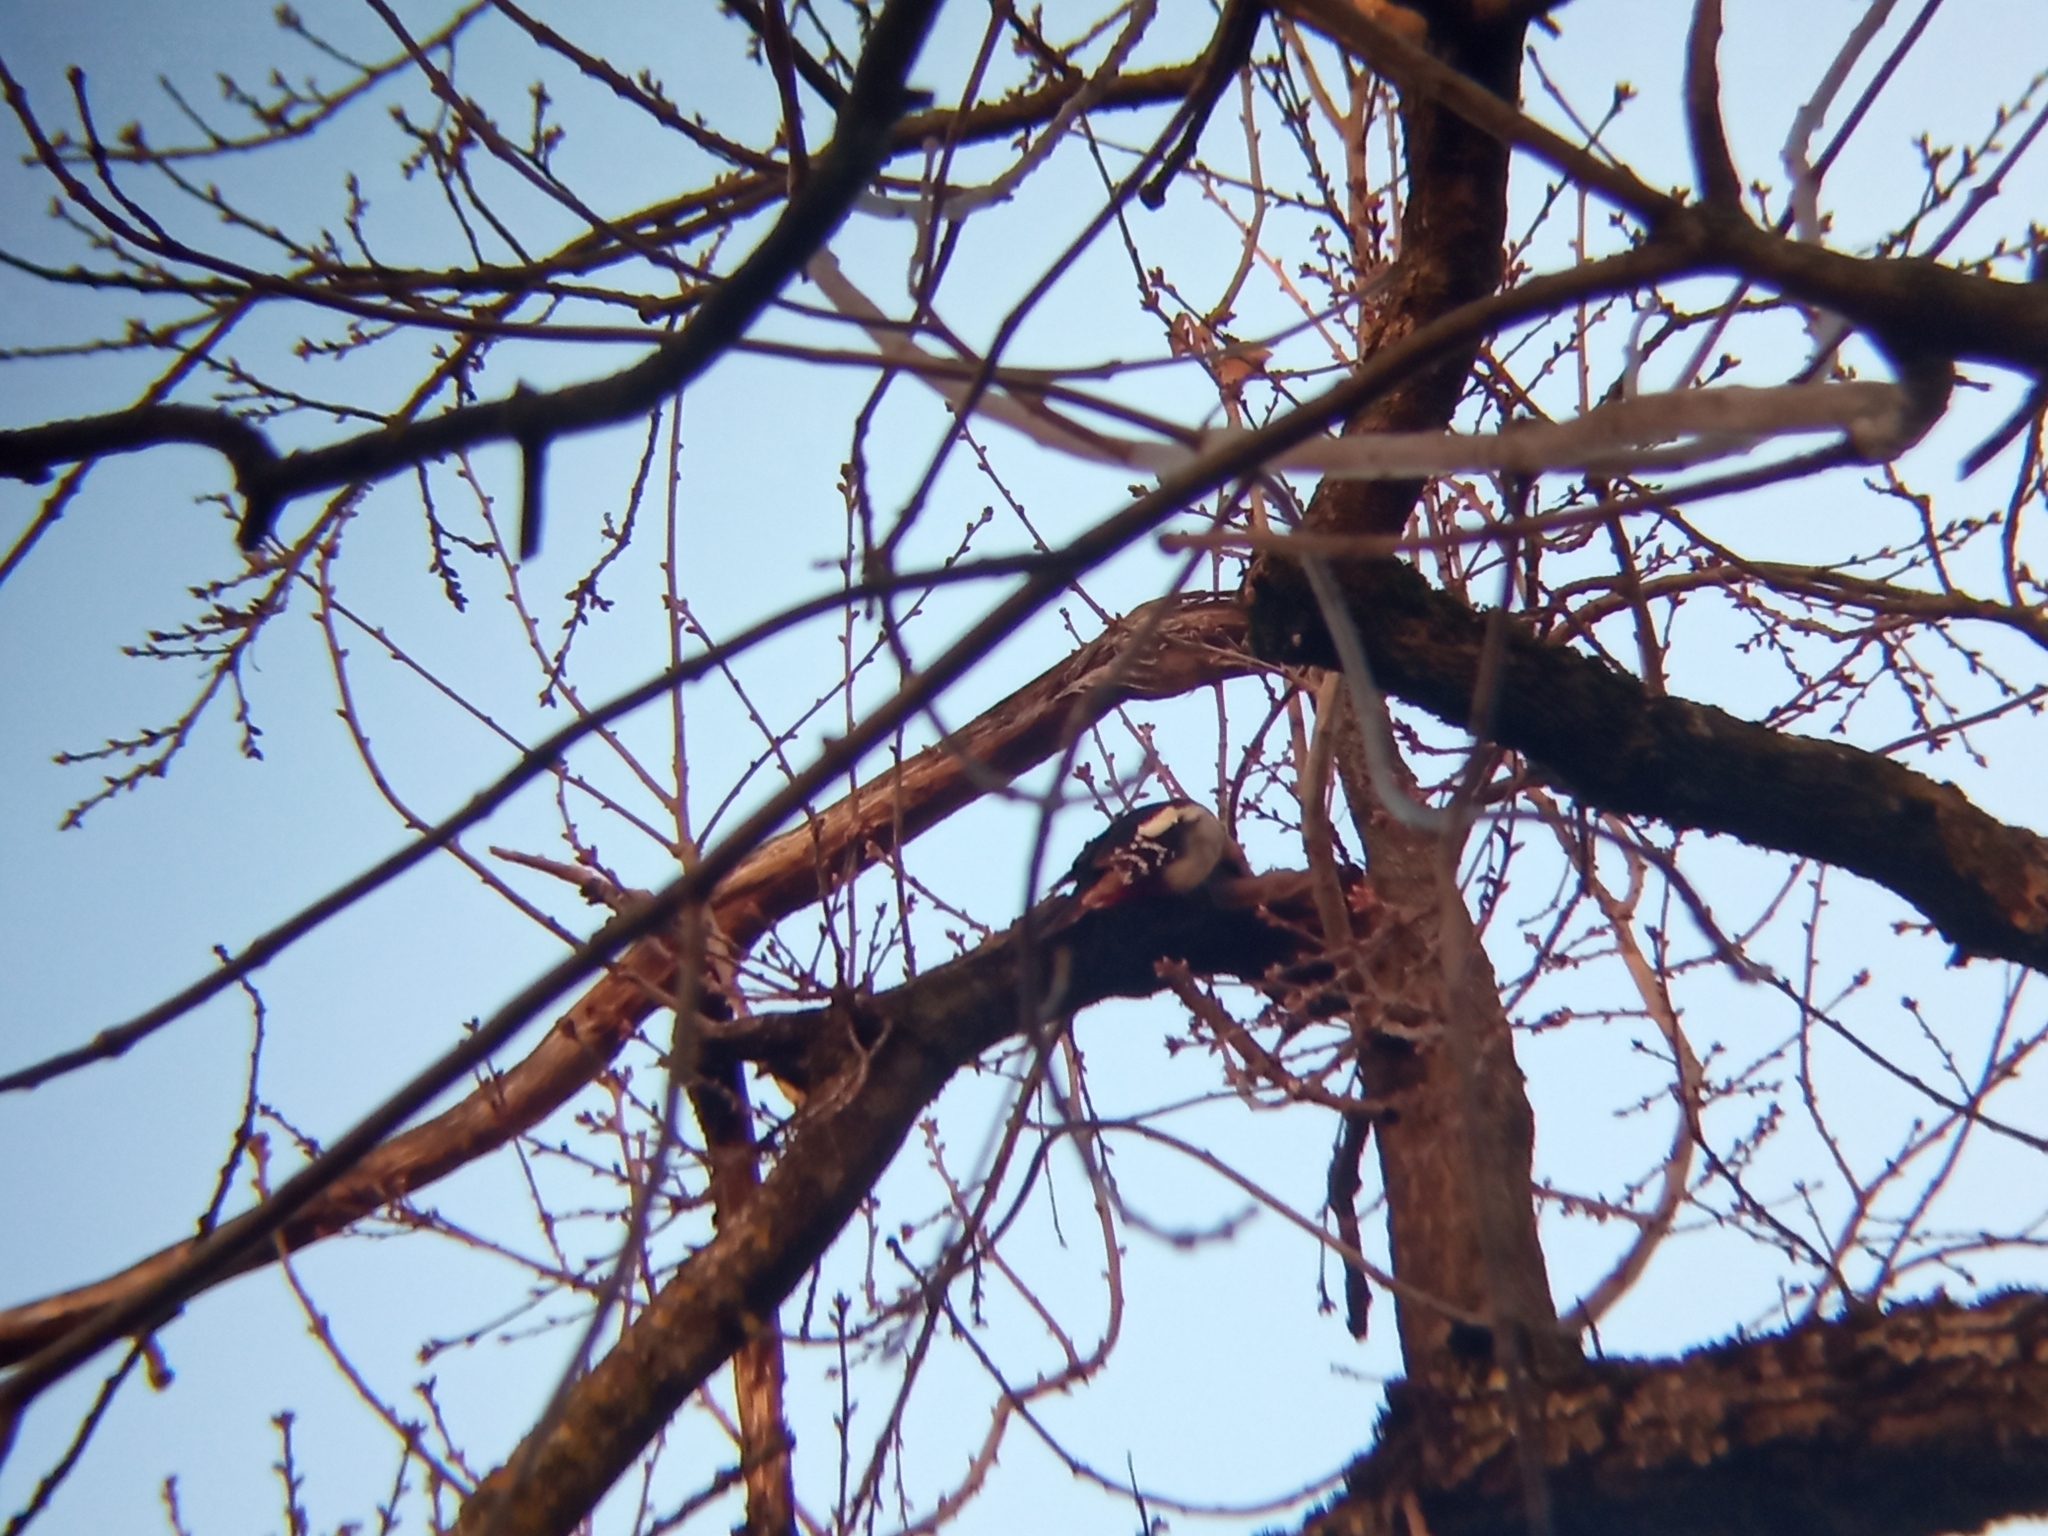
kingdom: Animalia
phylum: Chordata
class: Aves
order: Piciformes
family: Picidae
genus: Dendrocopos
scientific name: Dendrocopos major
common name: Great spotted woodpecker
